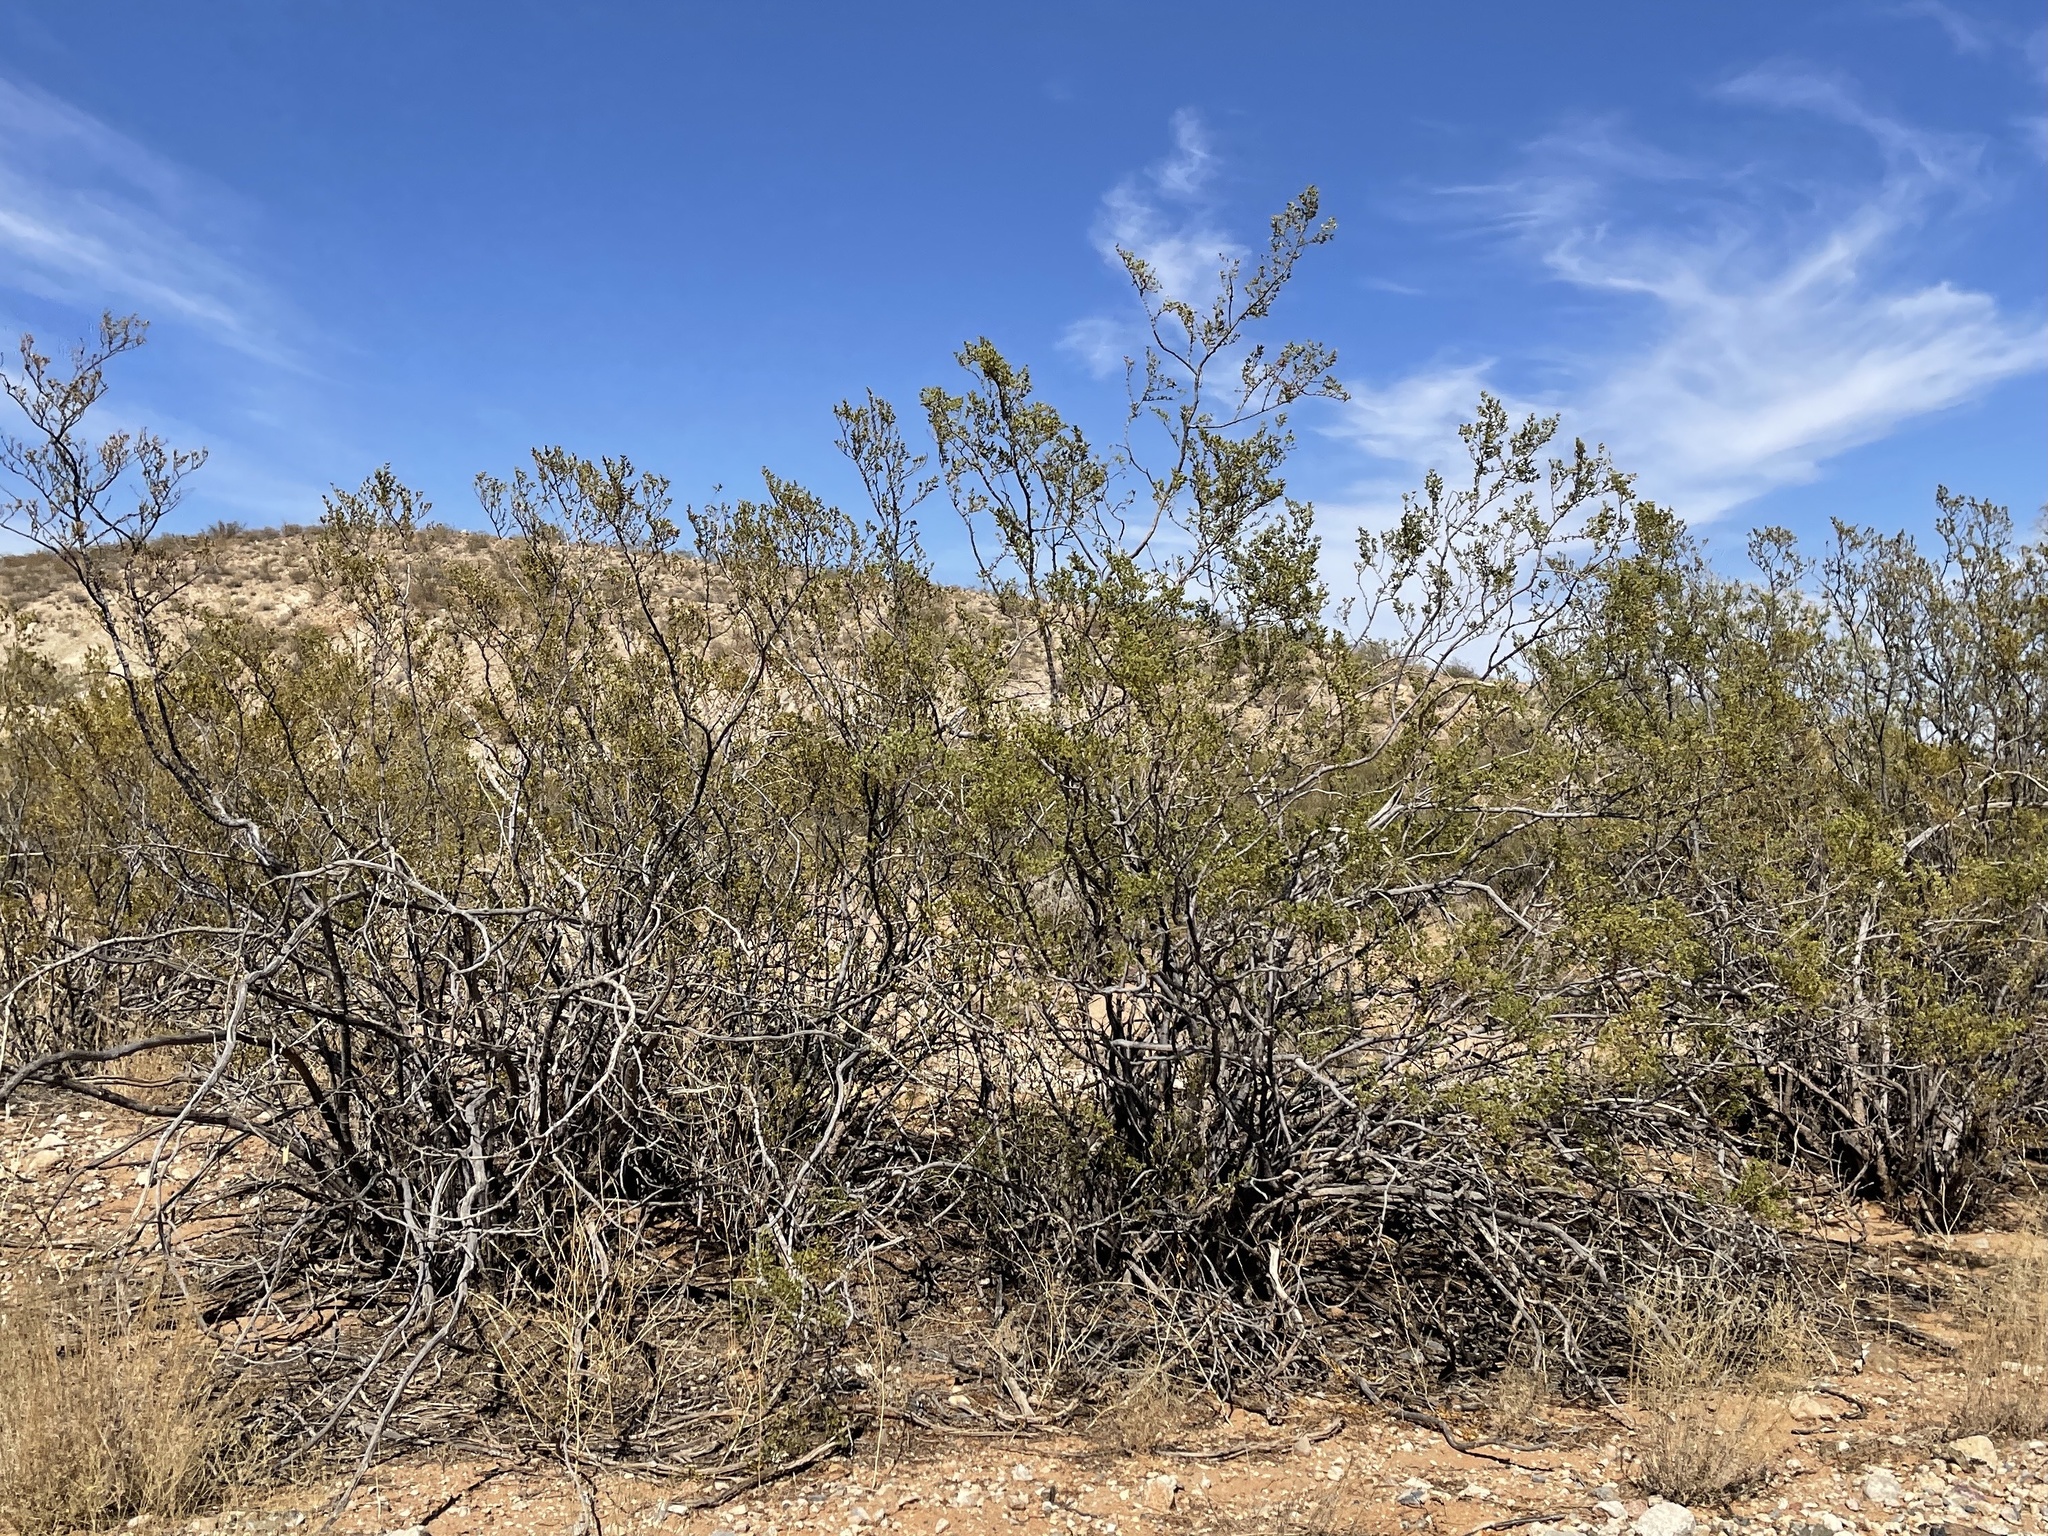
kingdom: Plantae
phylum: Tracheophyta
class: Magnoliopsida
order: Zygophyllales
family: Zygophyllaceae
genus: Larrea
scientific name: Larrea tridentata
